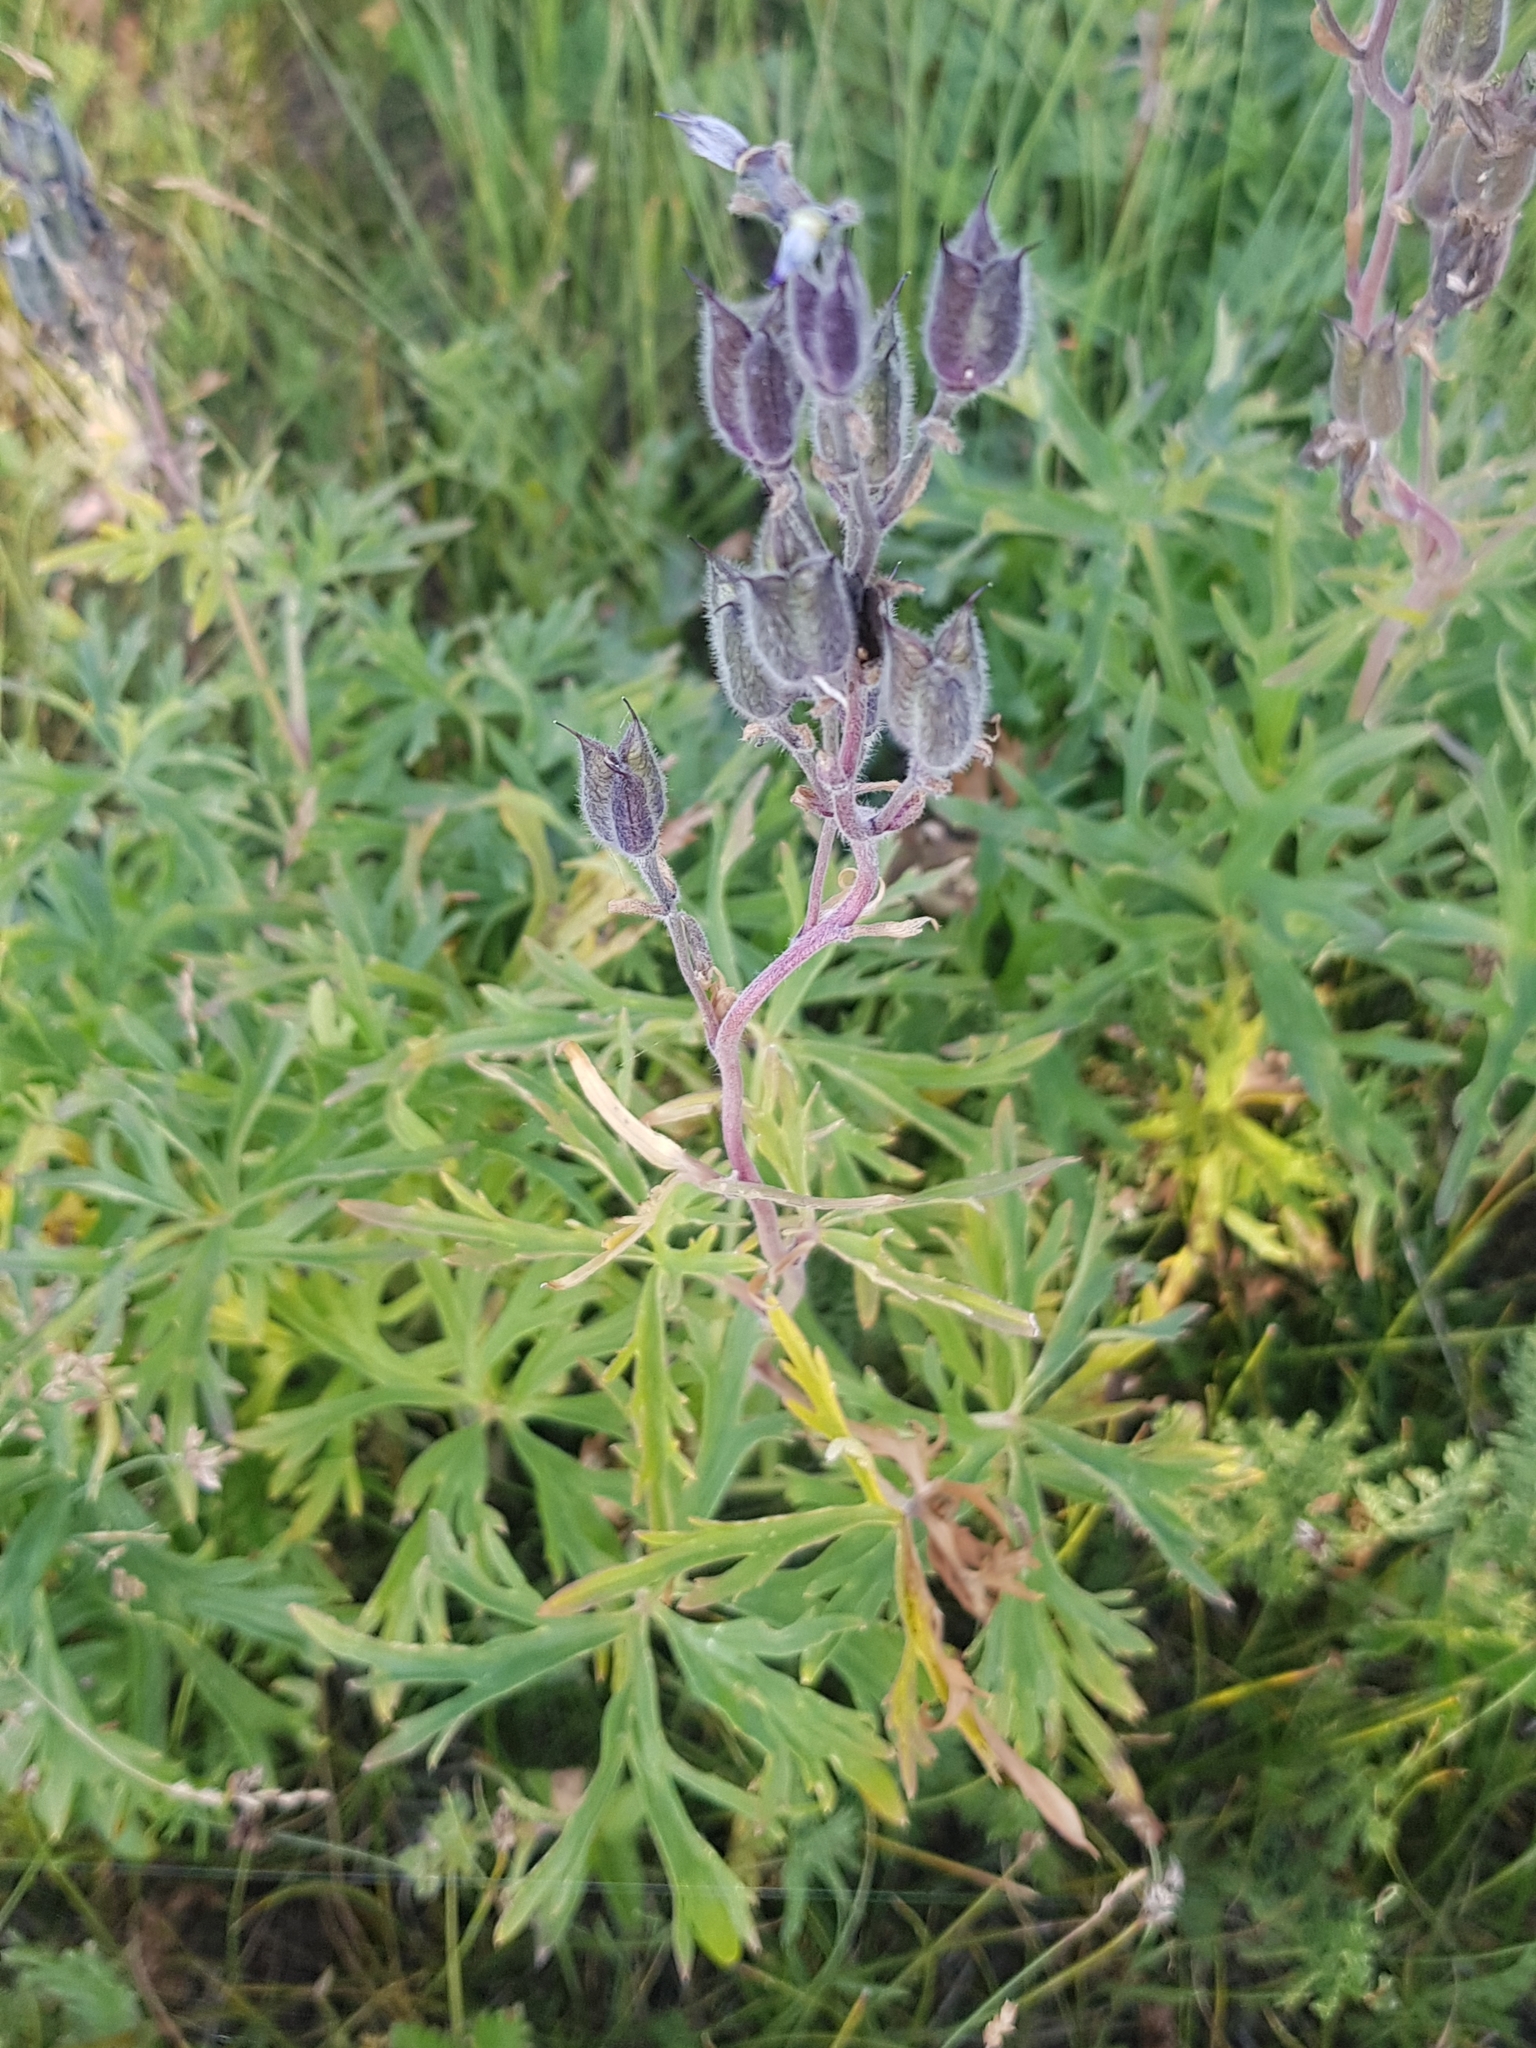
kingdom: Plantae
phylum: Tracheophyta
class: Magnoliopsida
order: Ranunculales
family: Ranunculaceae
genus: Delphinium
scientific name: Delphinium triste
